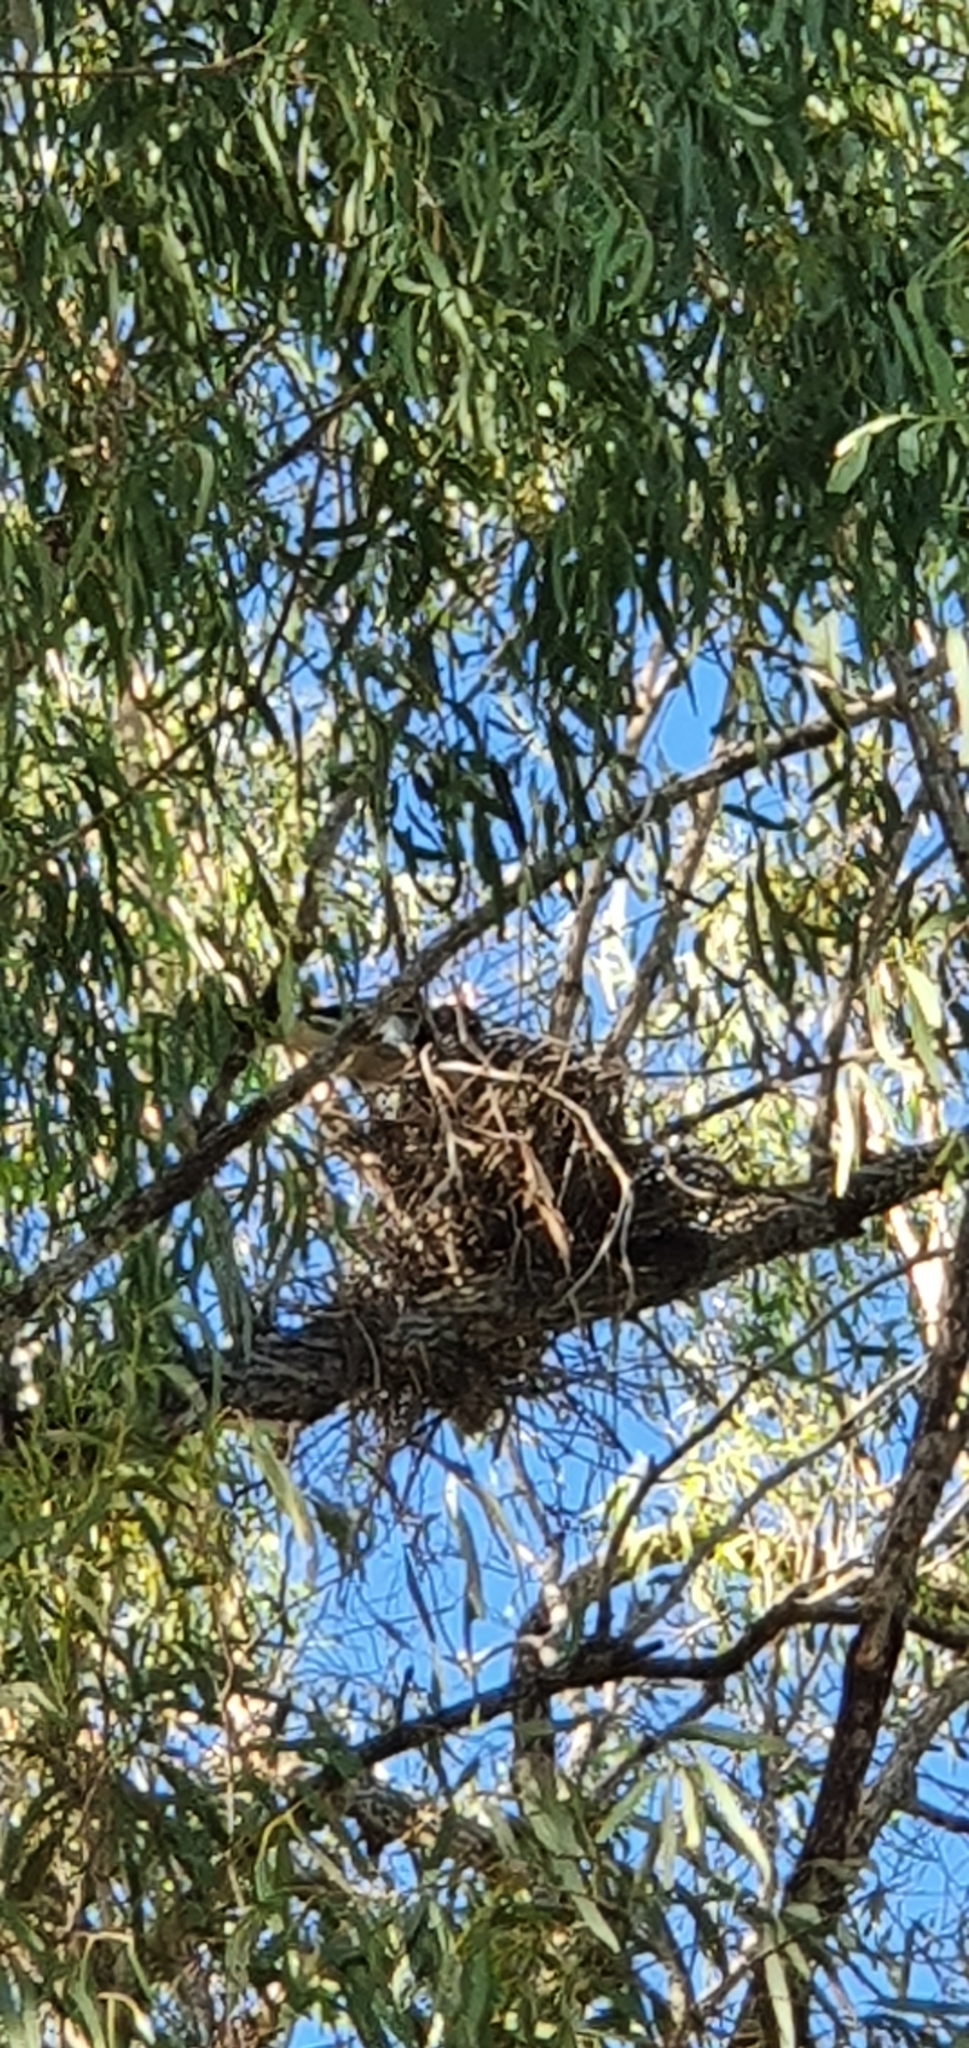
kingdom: Animalia
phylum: Chordata
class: Aves
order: Passeriformes
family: Cracticidae
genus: Cracticus
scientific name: Cracticus nigrogularis
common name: Pied butcherbird
